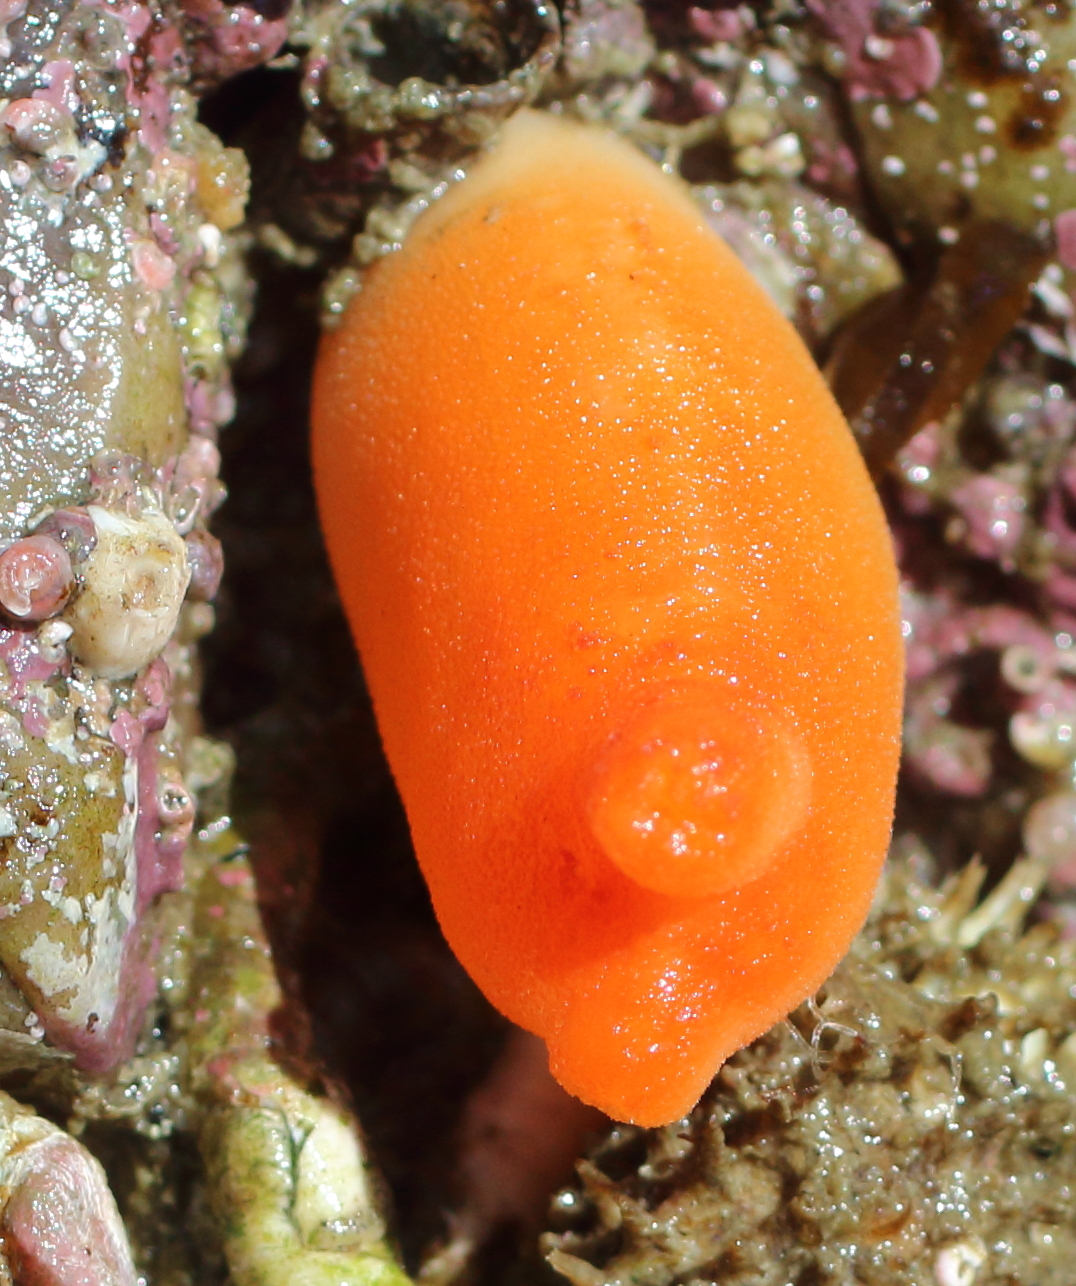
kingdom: Animalia
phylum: Chordata
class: Ascidiacea
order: Stolidobranchia
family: Pyuridae
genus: Halocynthia
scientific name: Halocynthia aurantium
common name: Sea peach
